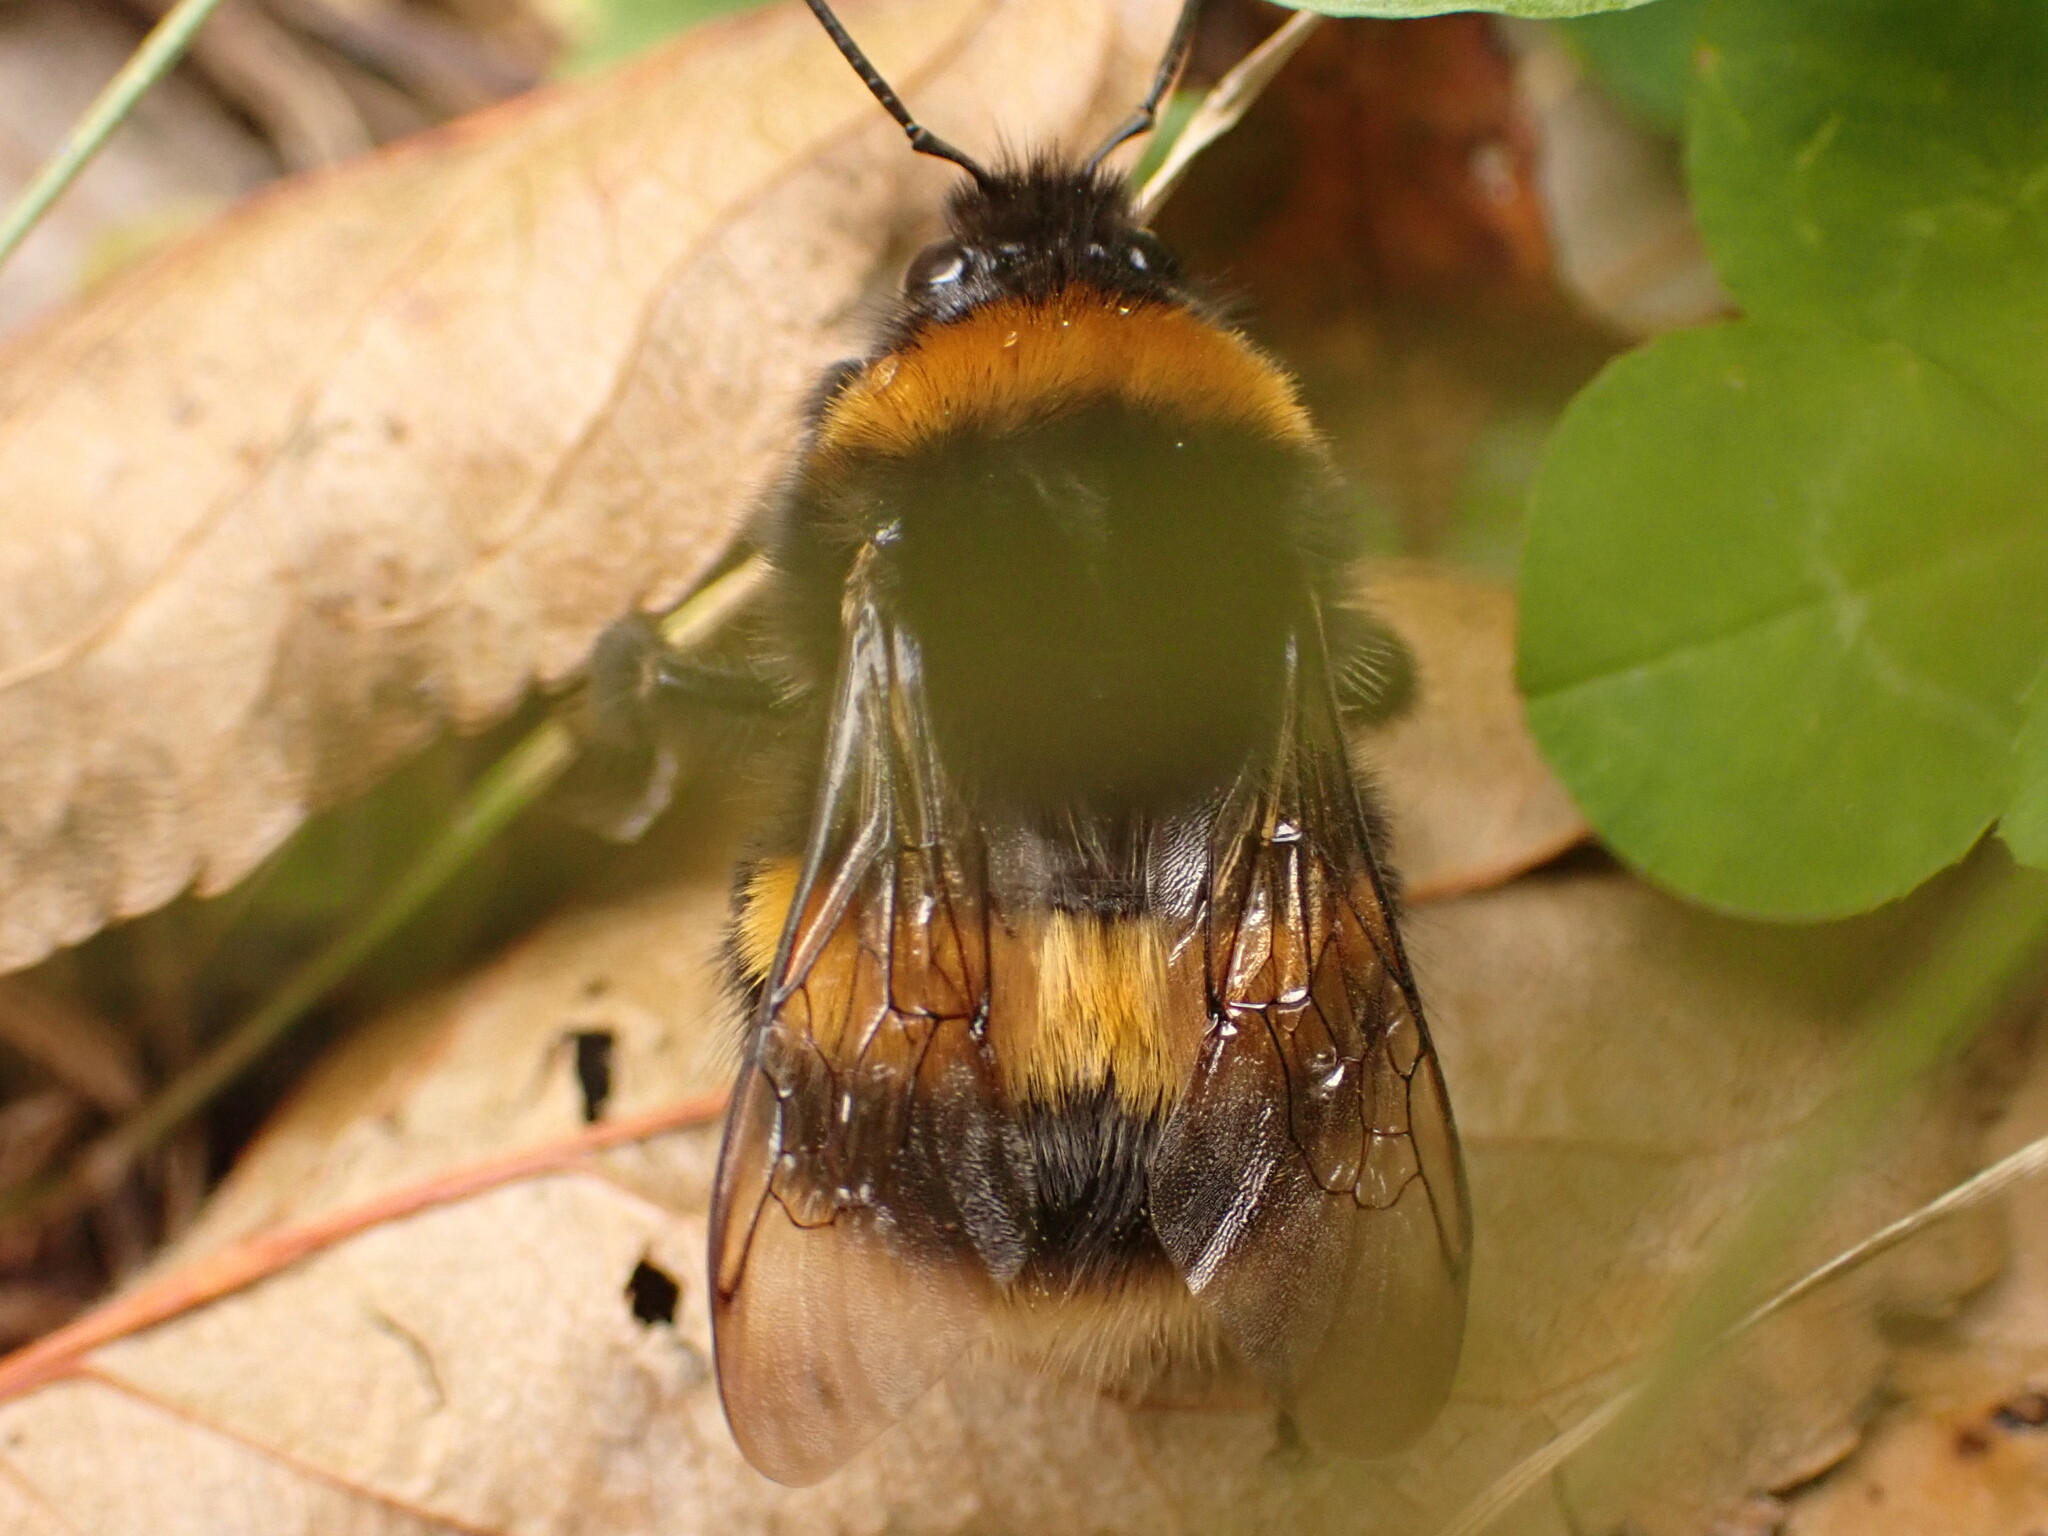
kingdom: Animalia
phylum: Arthropoda
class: Insecta
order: Hymenoptera
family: Apidae
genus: Bombus
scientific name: Bombus terrestris
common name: Buff-tailed bumblebee
